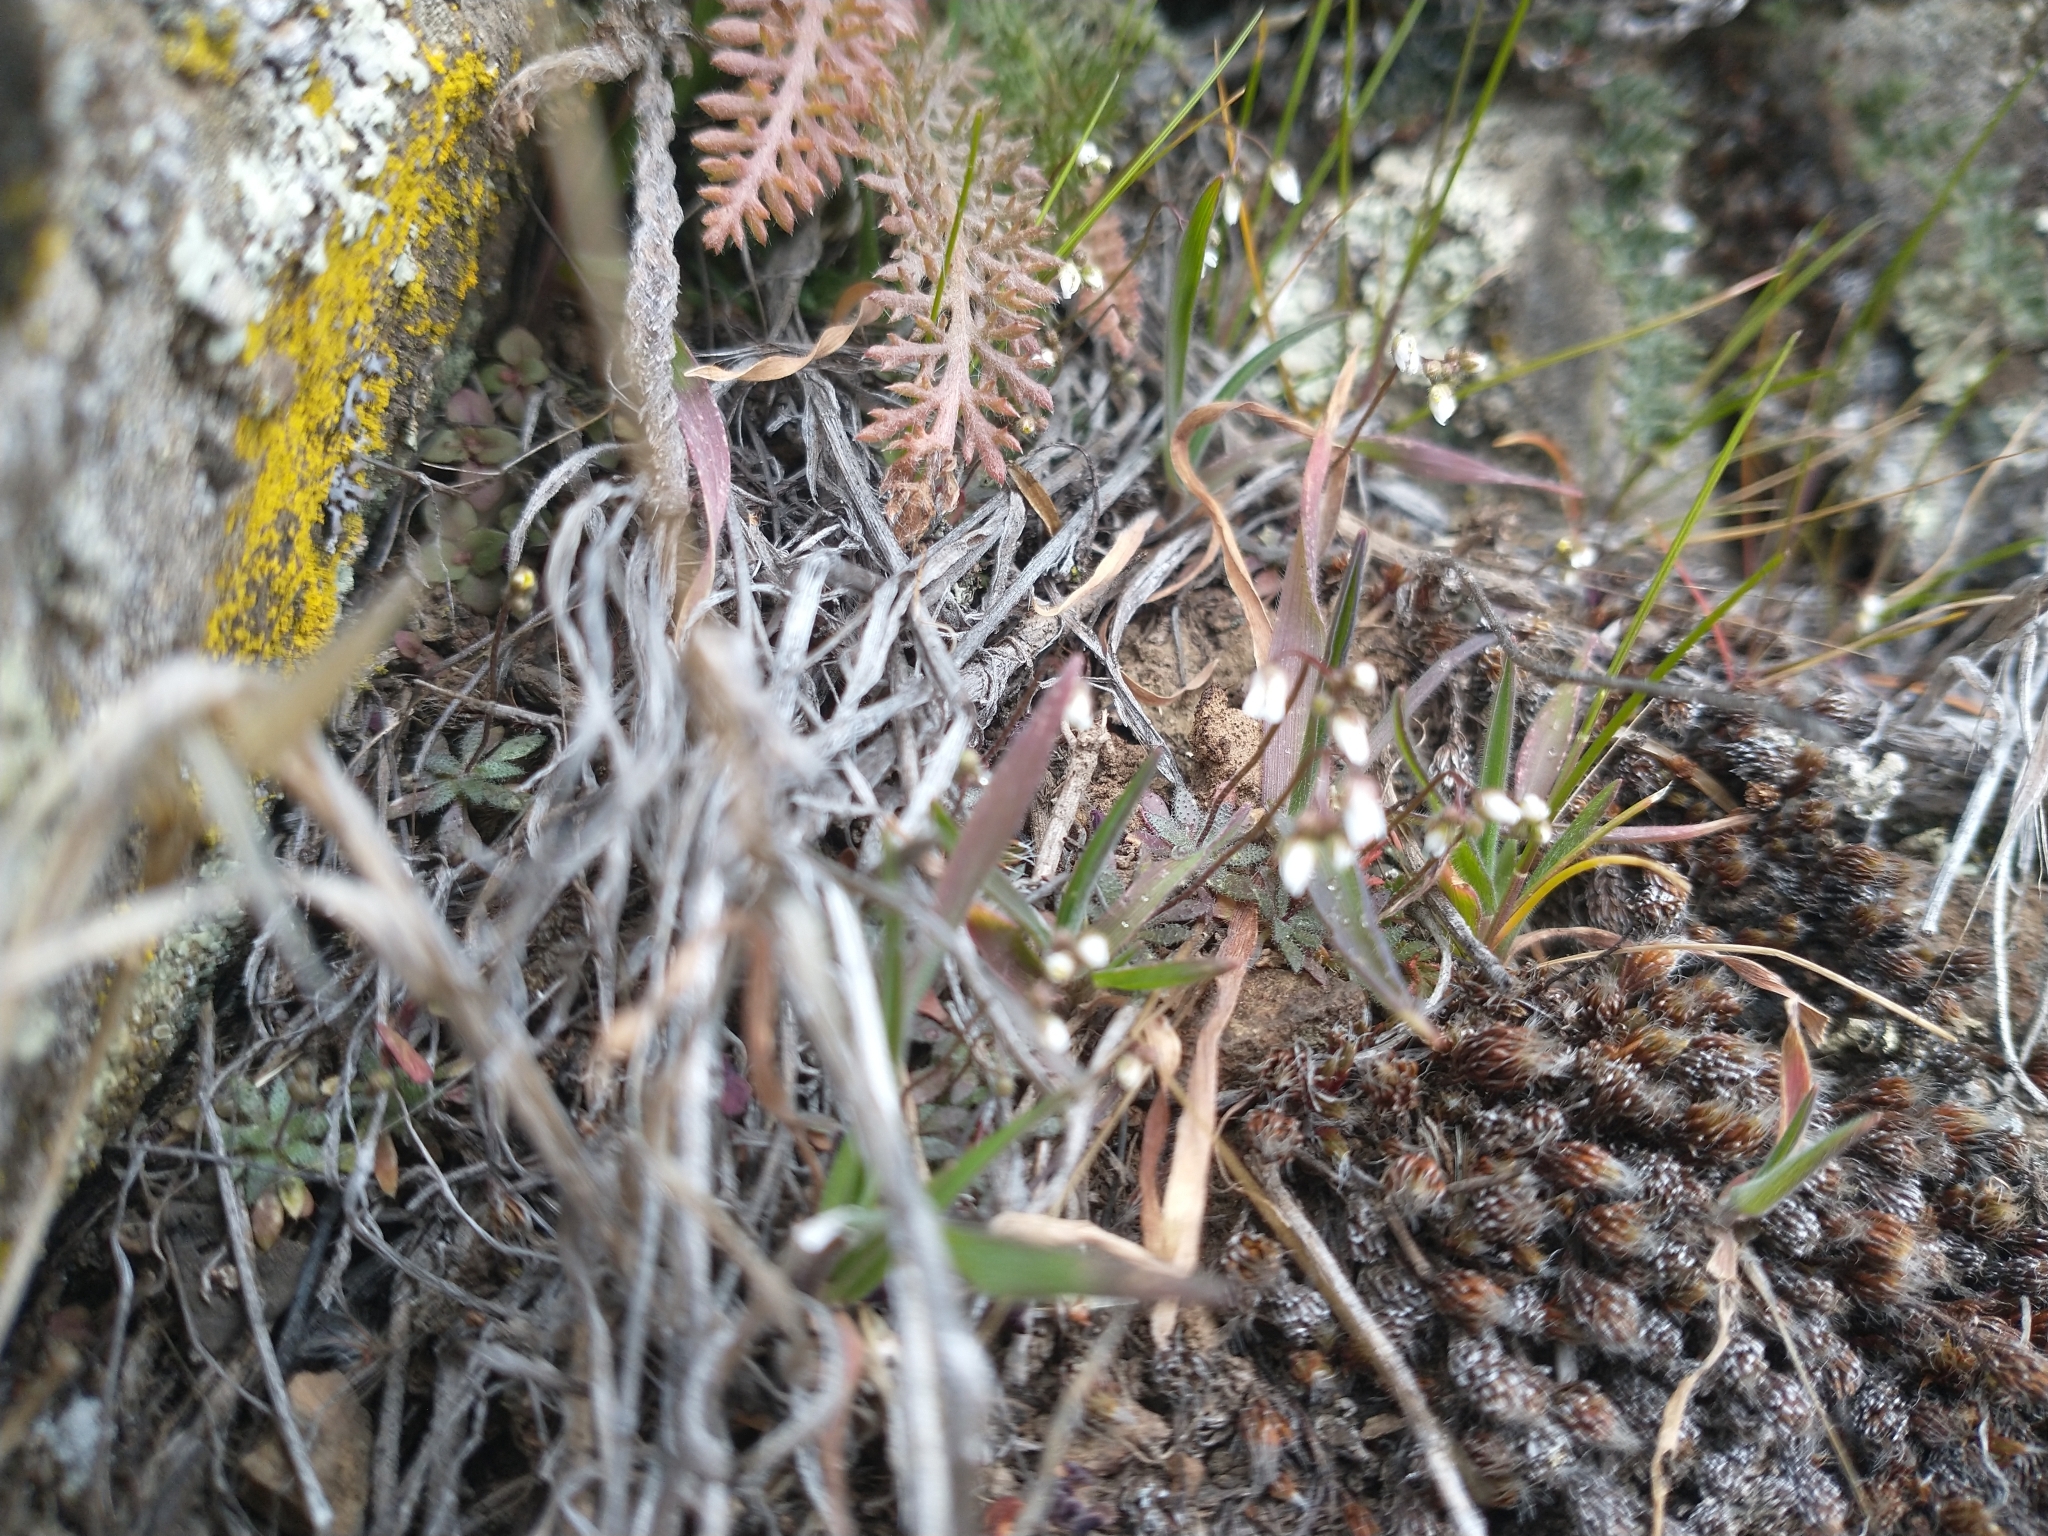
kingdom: Plantae
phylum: Tracheophyta
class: Magnoliopsida
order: Brassicales
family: Brassicaceae
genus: Draba
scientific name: Draba verna
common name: Spring draba
